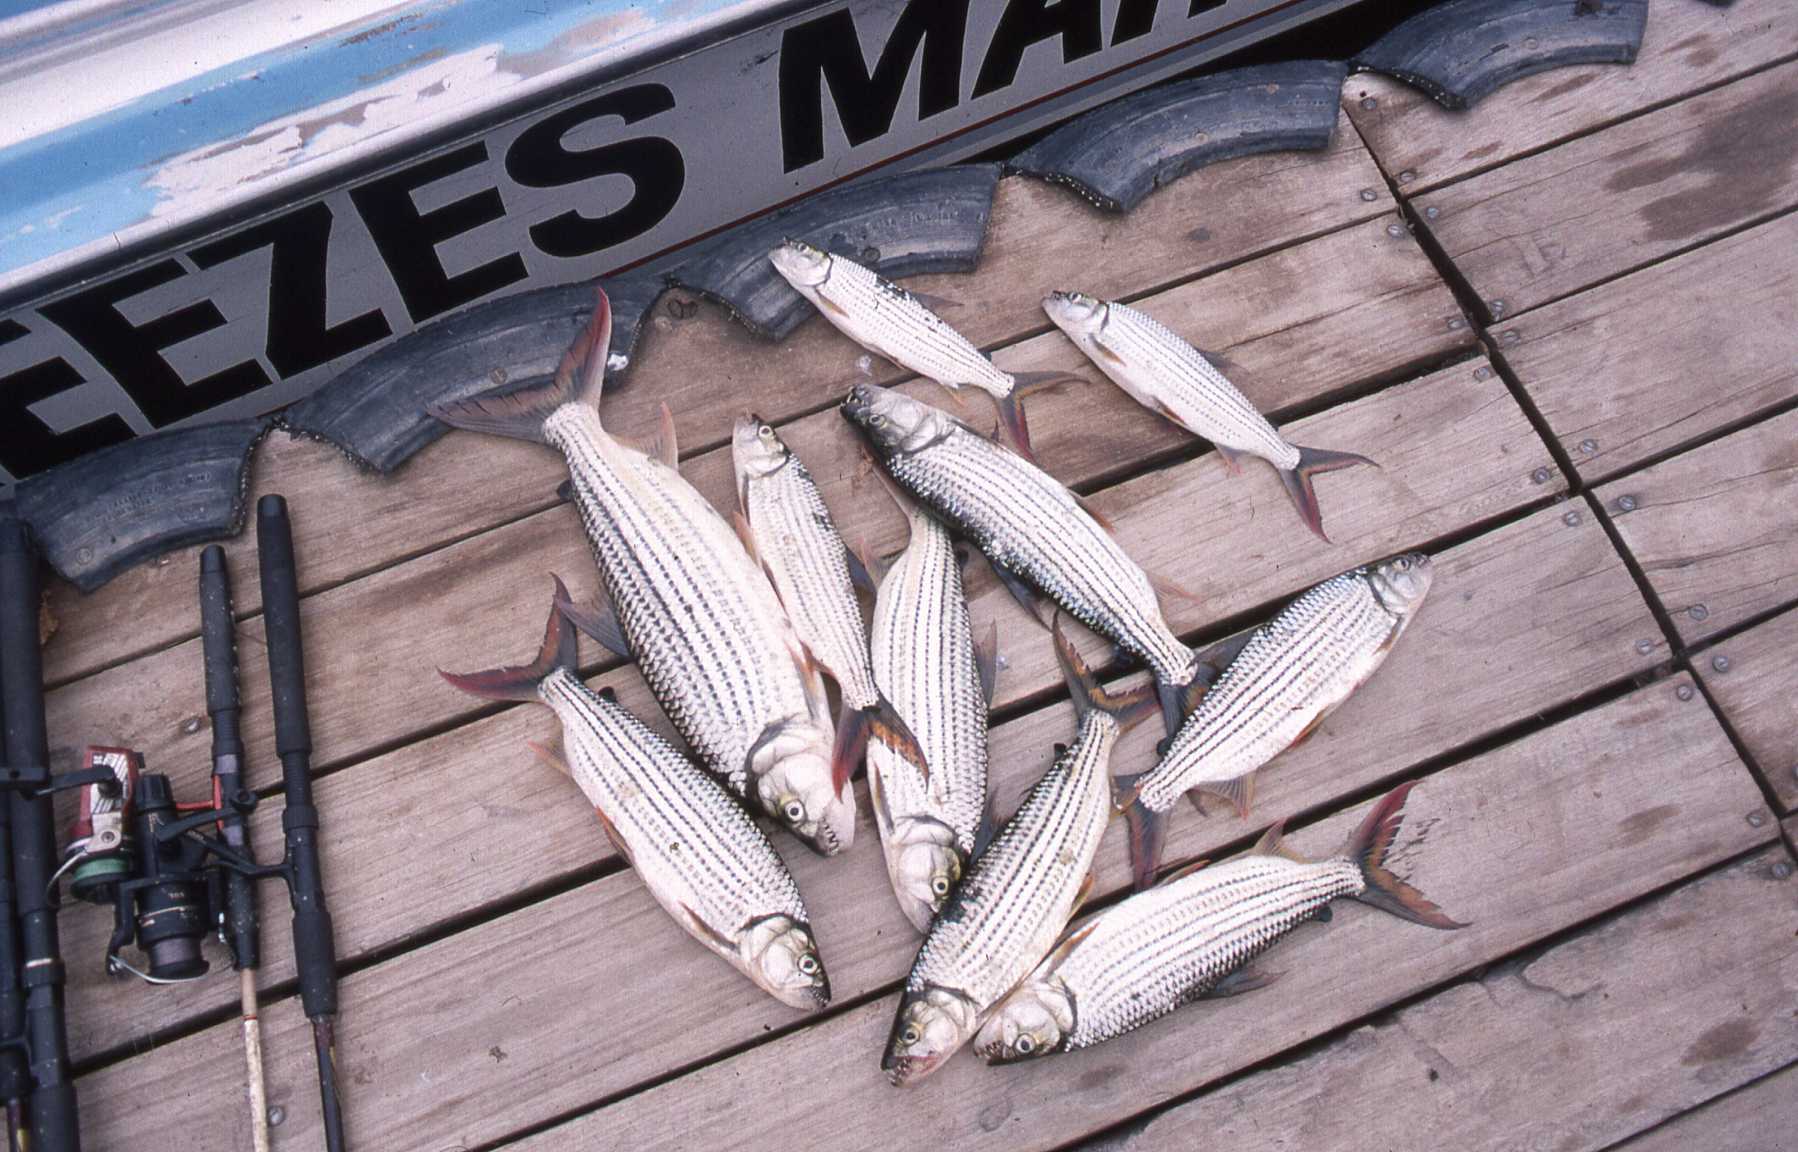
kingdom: Animalia
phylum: Chordata
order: Characiformes
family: Alestidae
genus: Hydrocynus
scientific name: Hydrocynus vittatus
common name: Tigerfish
